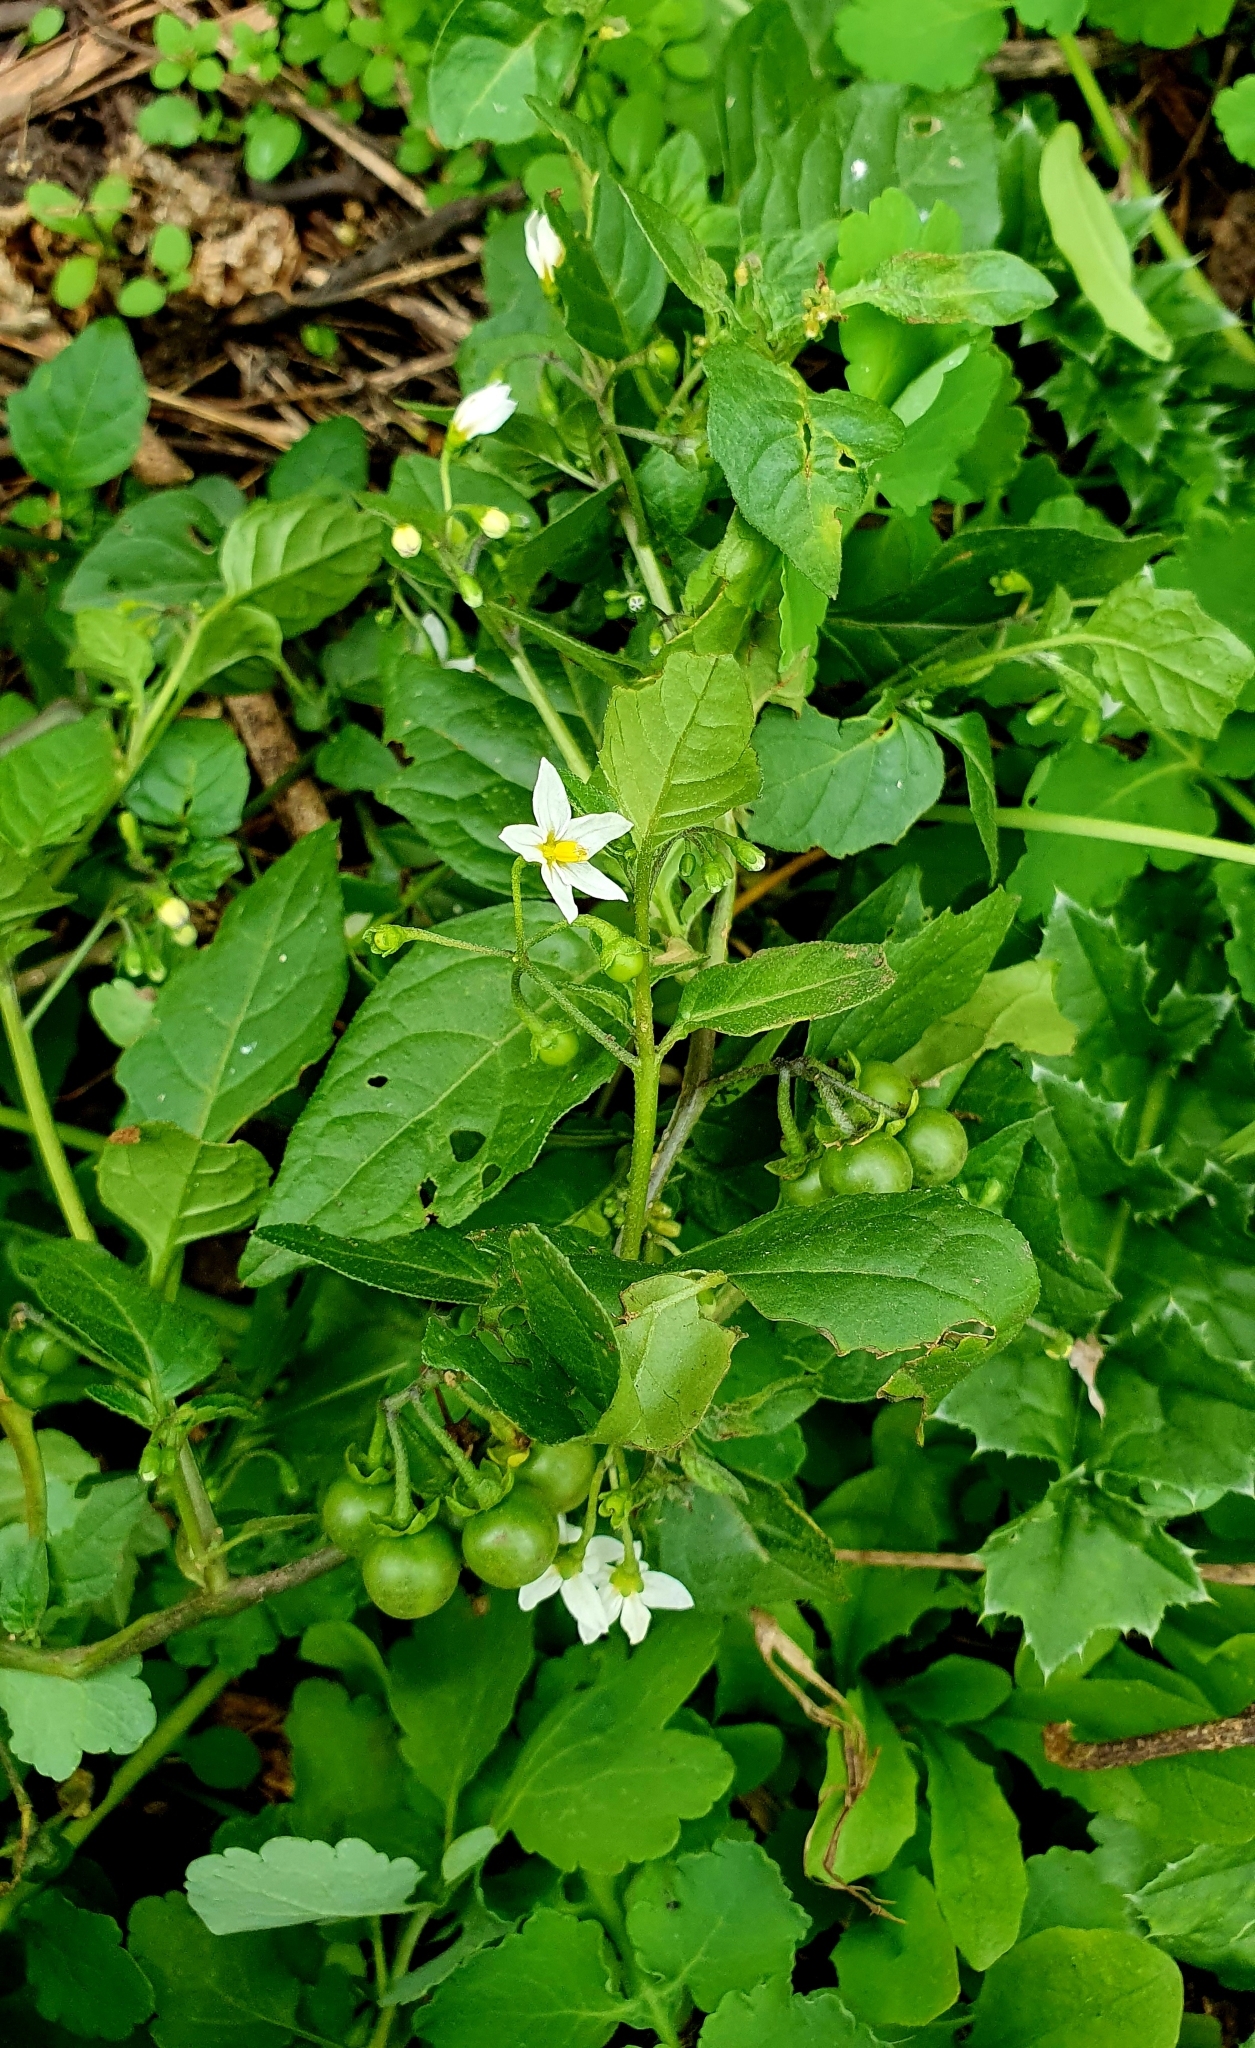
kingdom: Plantae
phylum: Tracheophyta
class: Magnoliopsida
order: Solanales
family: Solanaceae
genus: Solanum
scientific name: Solanum nigrum
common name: Black nightshade
